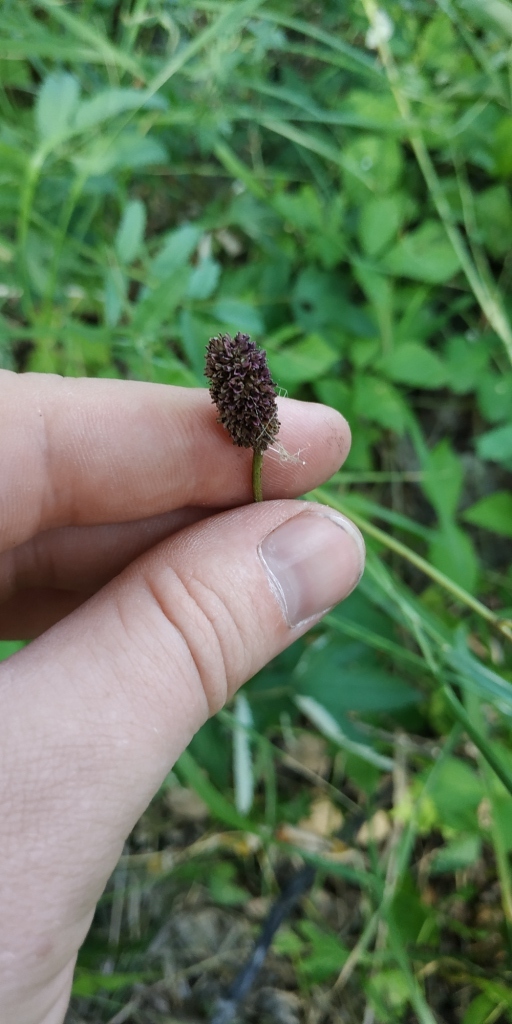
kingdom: Plantae
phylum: Tracheophyta
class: Magnoliopsida
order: Rosales
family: Rosaceae
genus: Sanguisorba
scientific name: Sanguisorba officinalis
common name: Great burnet
